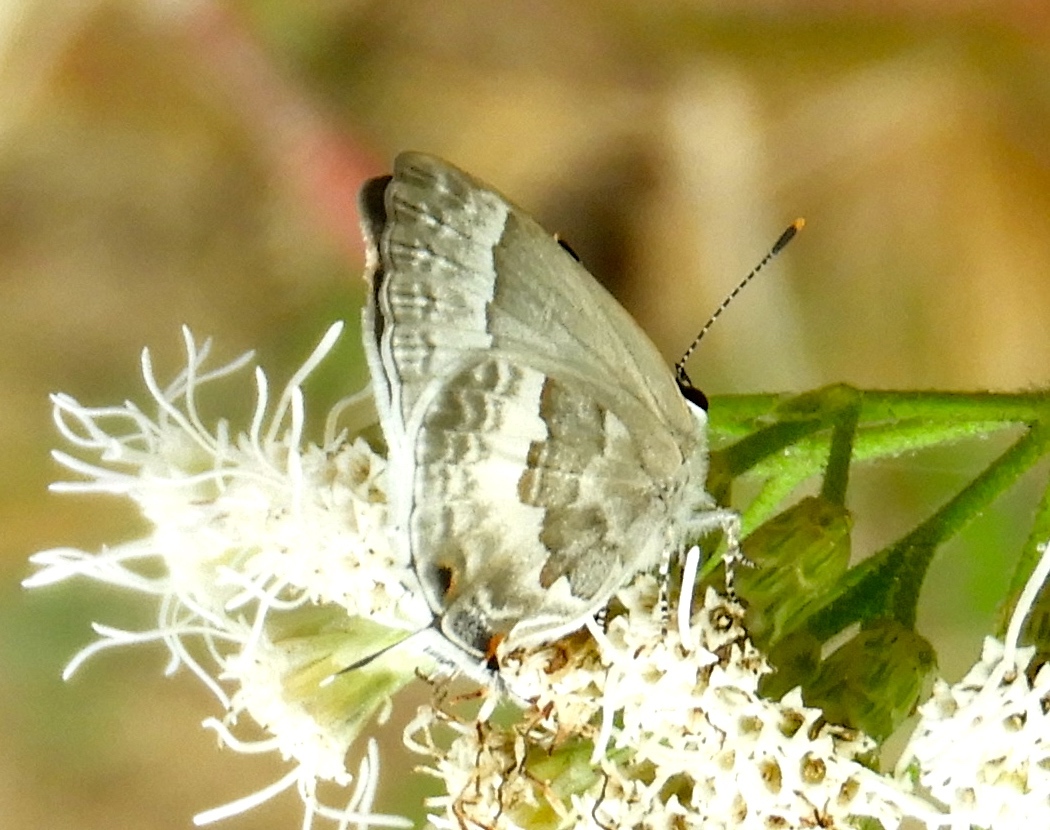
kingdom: Animalia
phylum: Arthropoda
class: Insecta
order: Lepidoptera
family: Lycaenidae
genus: Strymon
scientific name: Strymon albata
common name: White scrub-hairstreak
